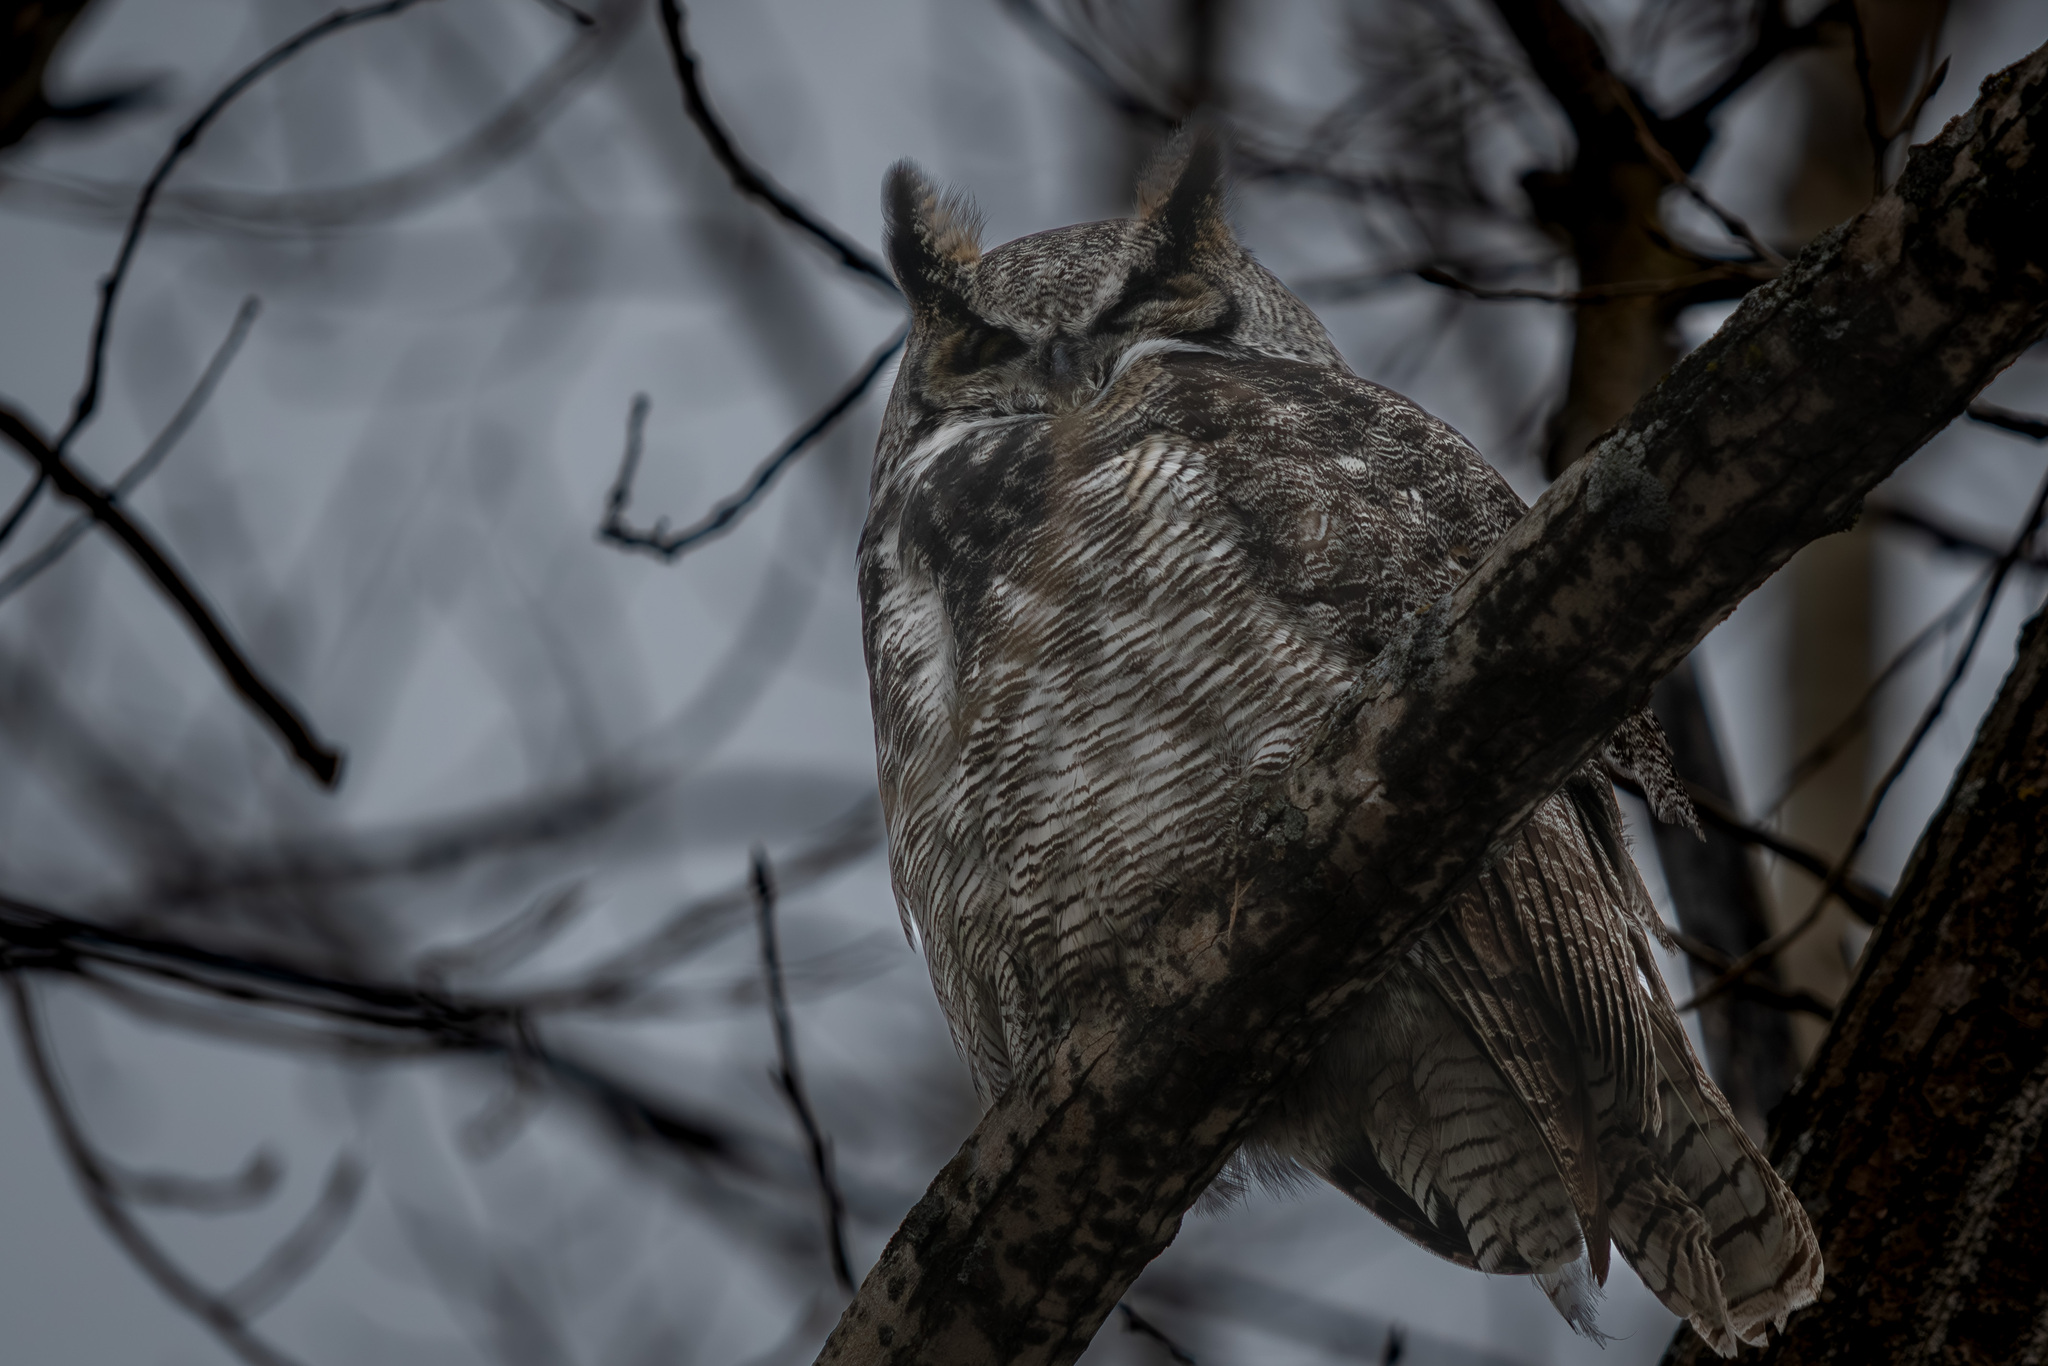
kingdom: Animalia
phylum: Chordata
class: Aves
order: Strigiformes
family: Strigidae
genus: Bubo
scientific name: Bubo virginianus
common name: Great horned owl
